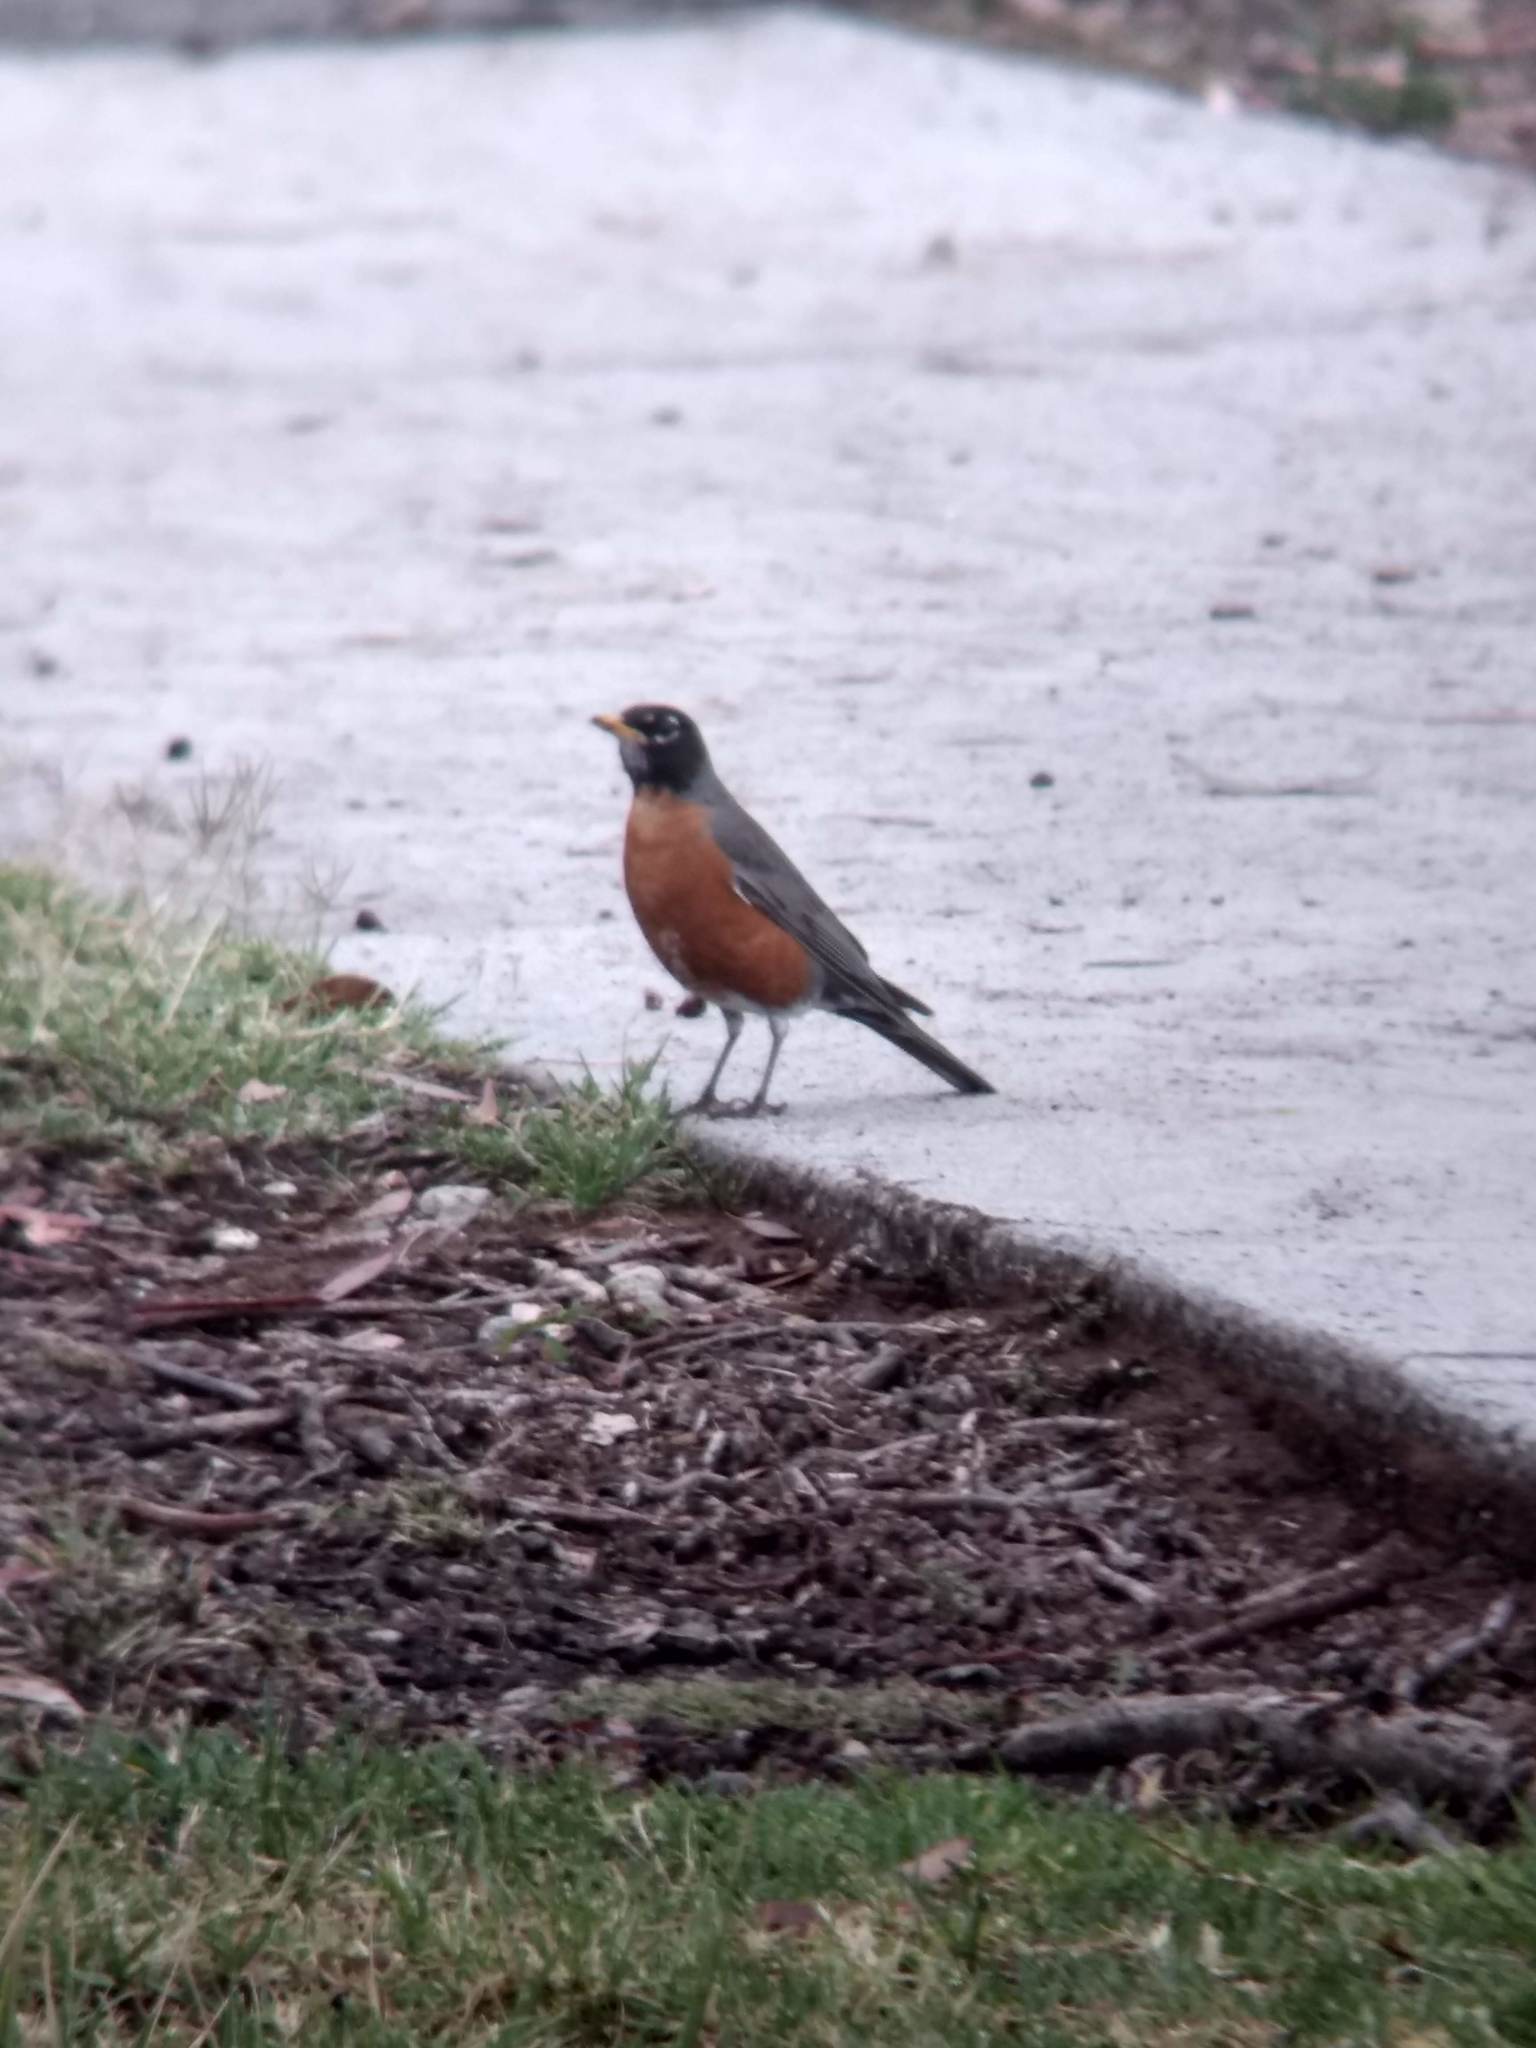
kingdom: Animalia
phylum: Chordata
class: Aves
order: Passeriformes
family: Turdidae
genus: Turdus
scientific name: Turdus migratorius
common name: American robin
